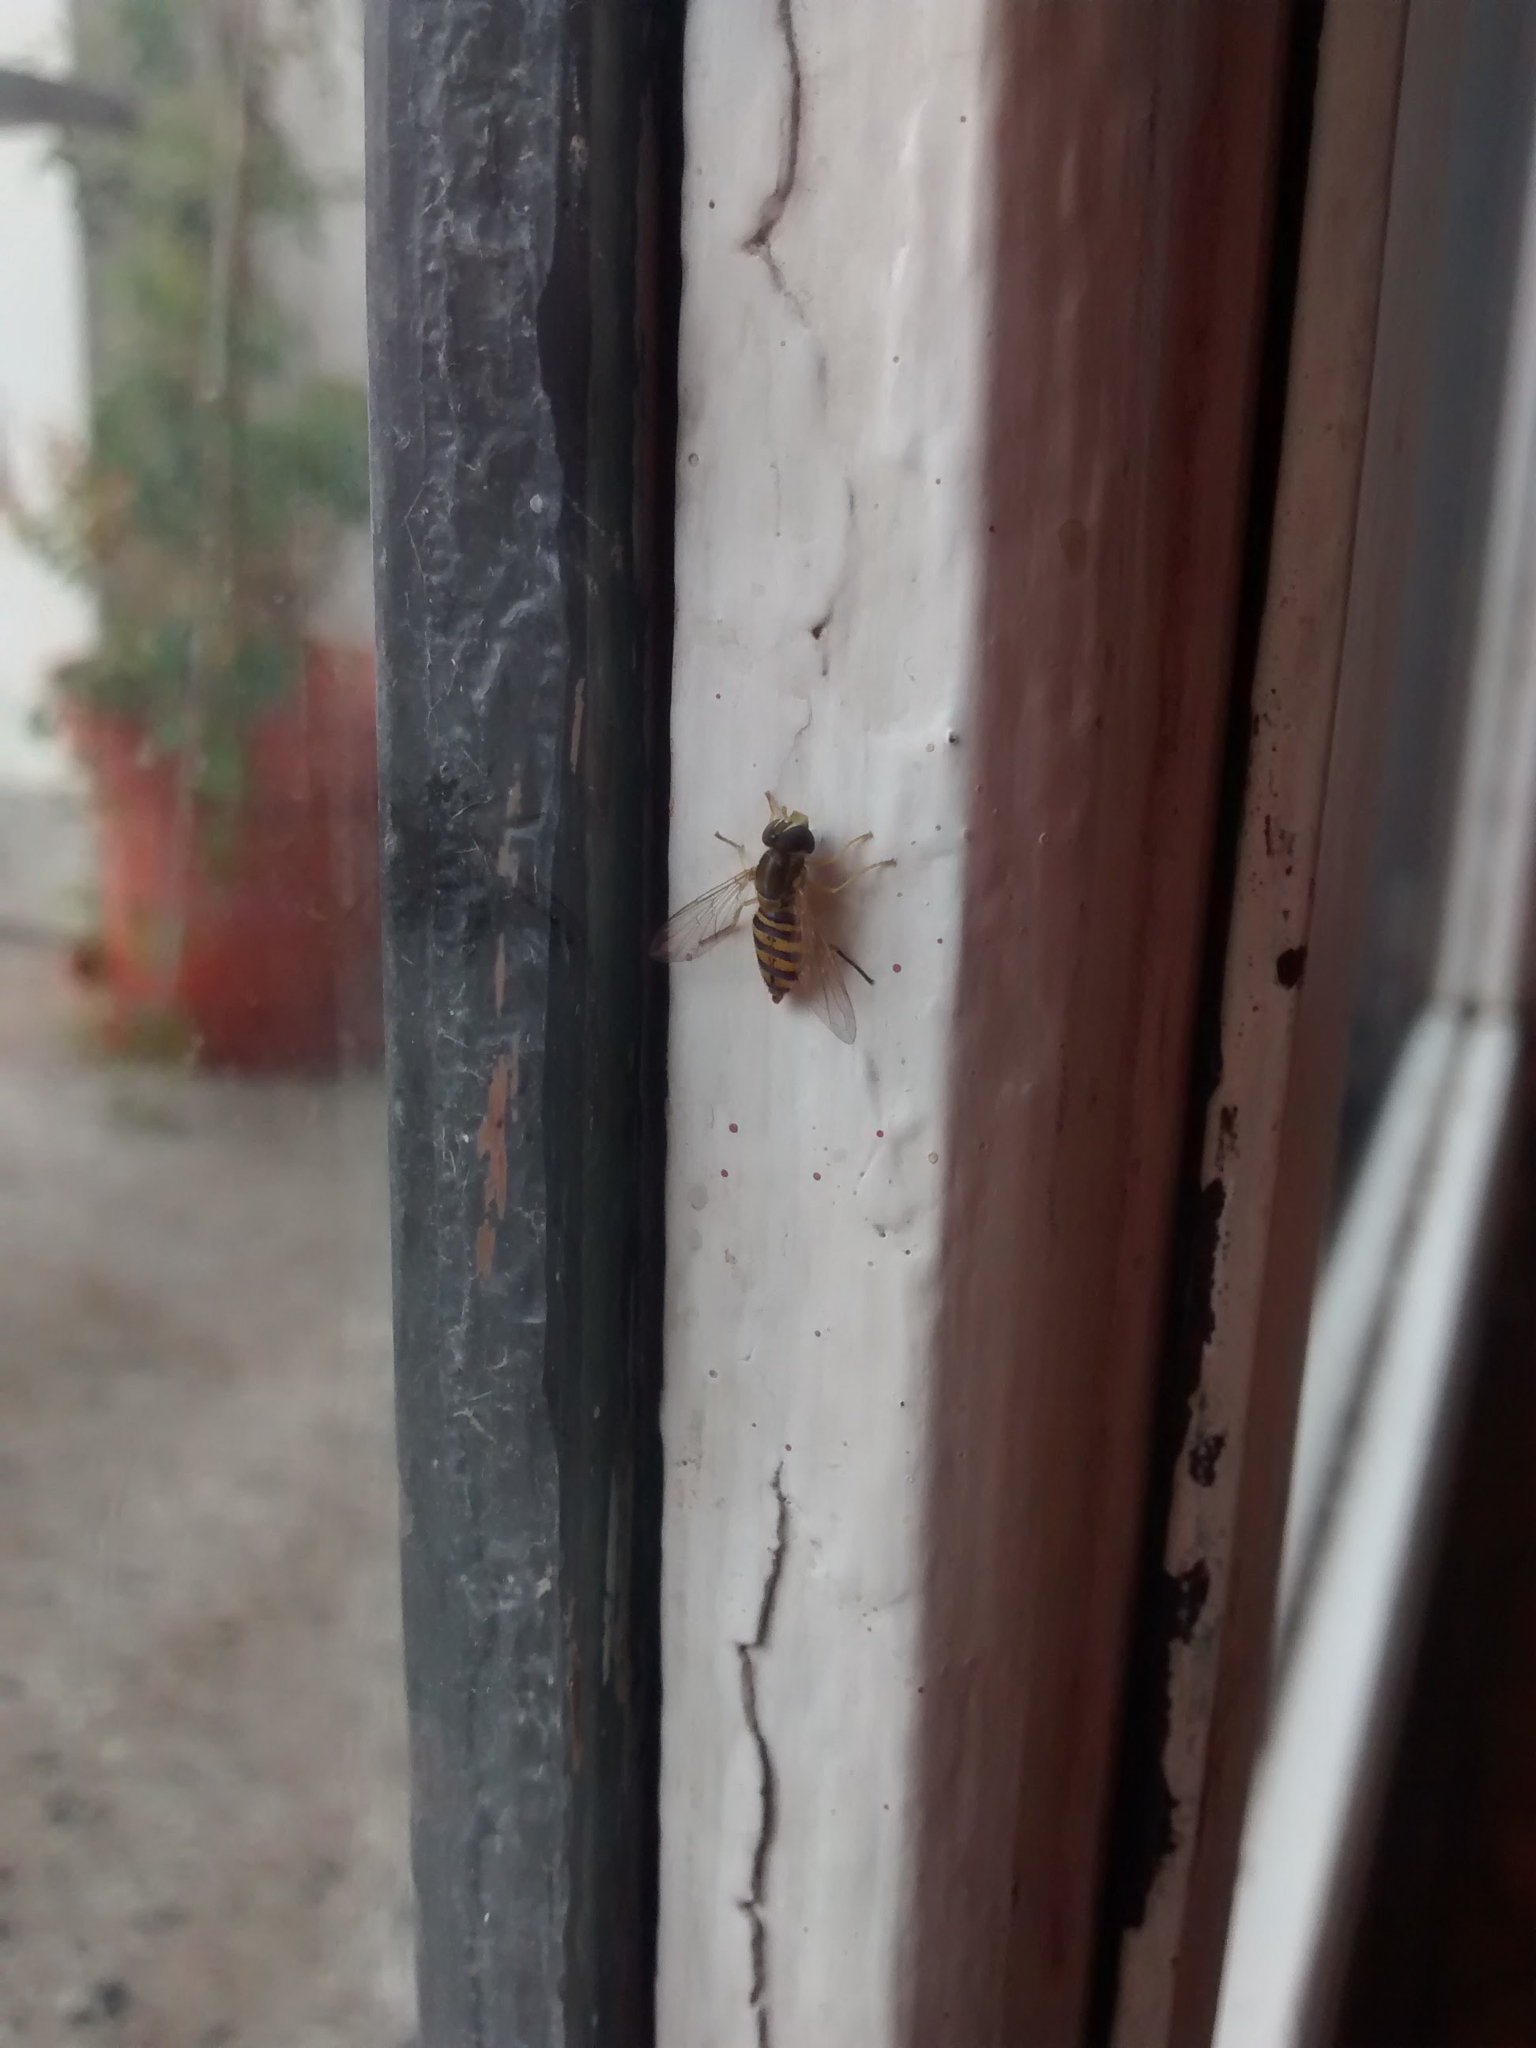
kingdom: Animalia
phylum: Arthropoda
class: Insecta
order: Diptera
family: Syrphidae
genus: Toxomerus
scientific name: Toxomerus
